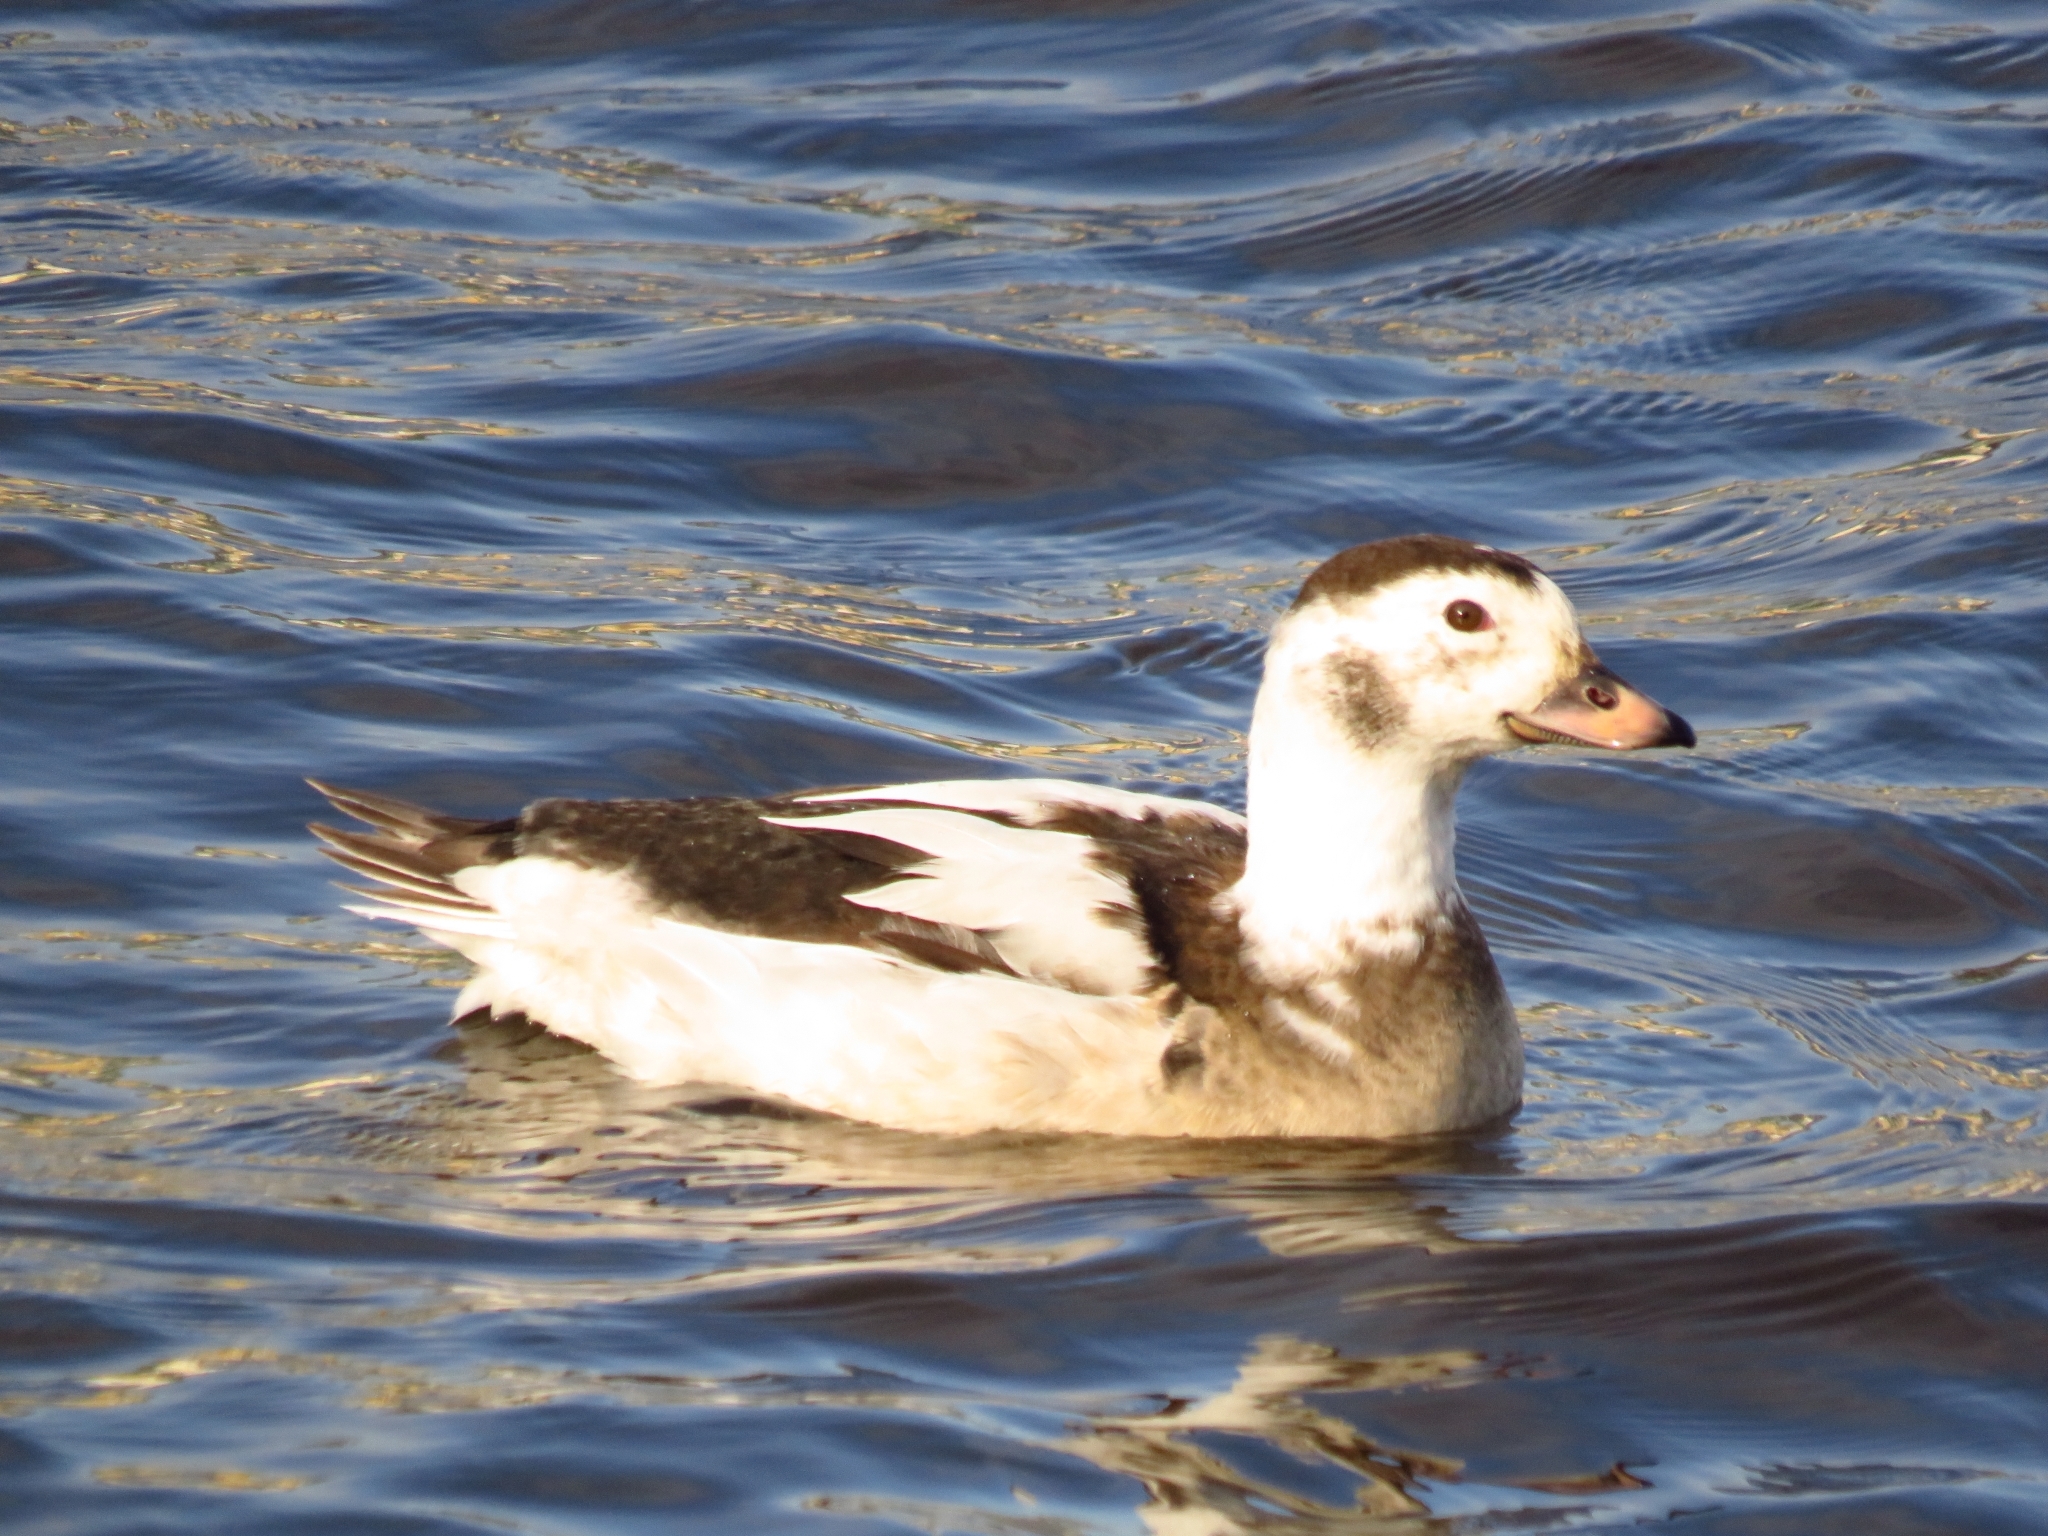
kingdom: Animalia
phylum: Chordata
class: Aves
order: Anseriformes
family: Anatidae
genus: Clangula
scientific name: Clangula hyemalis
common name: Long-tailed duck
